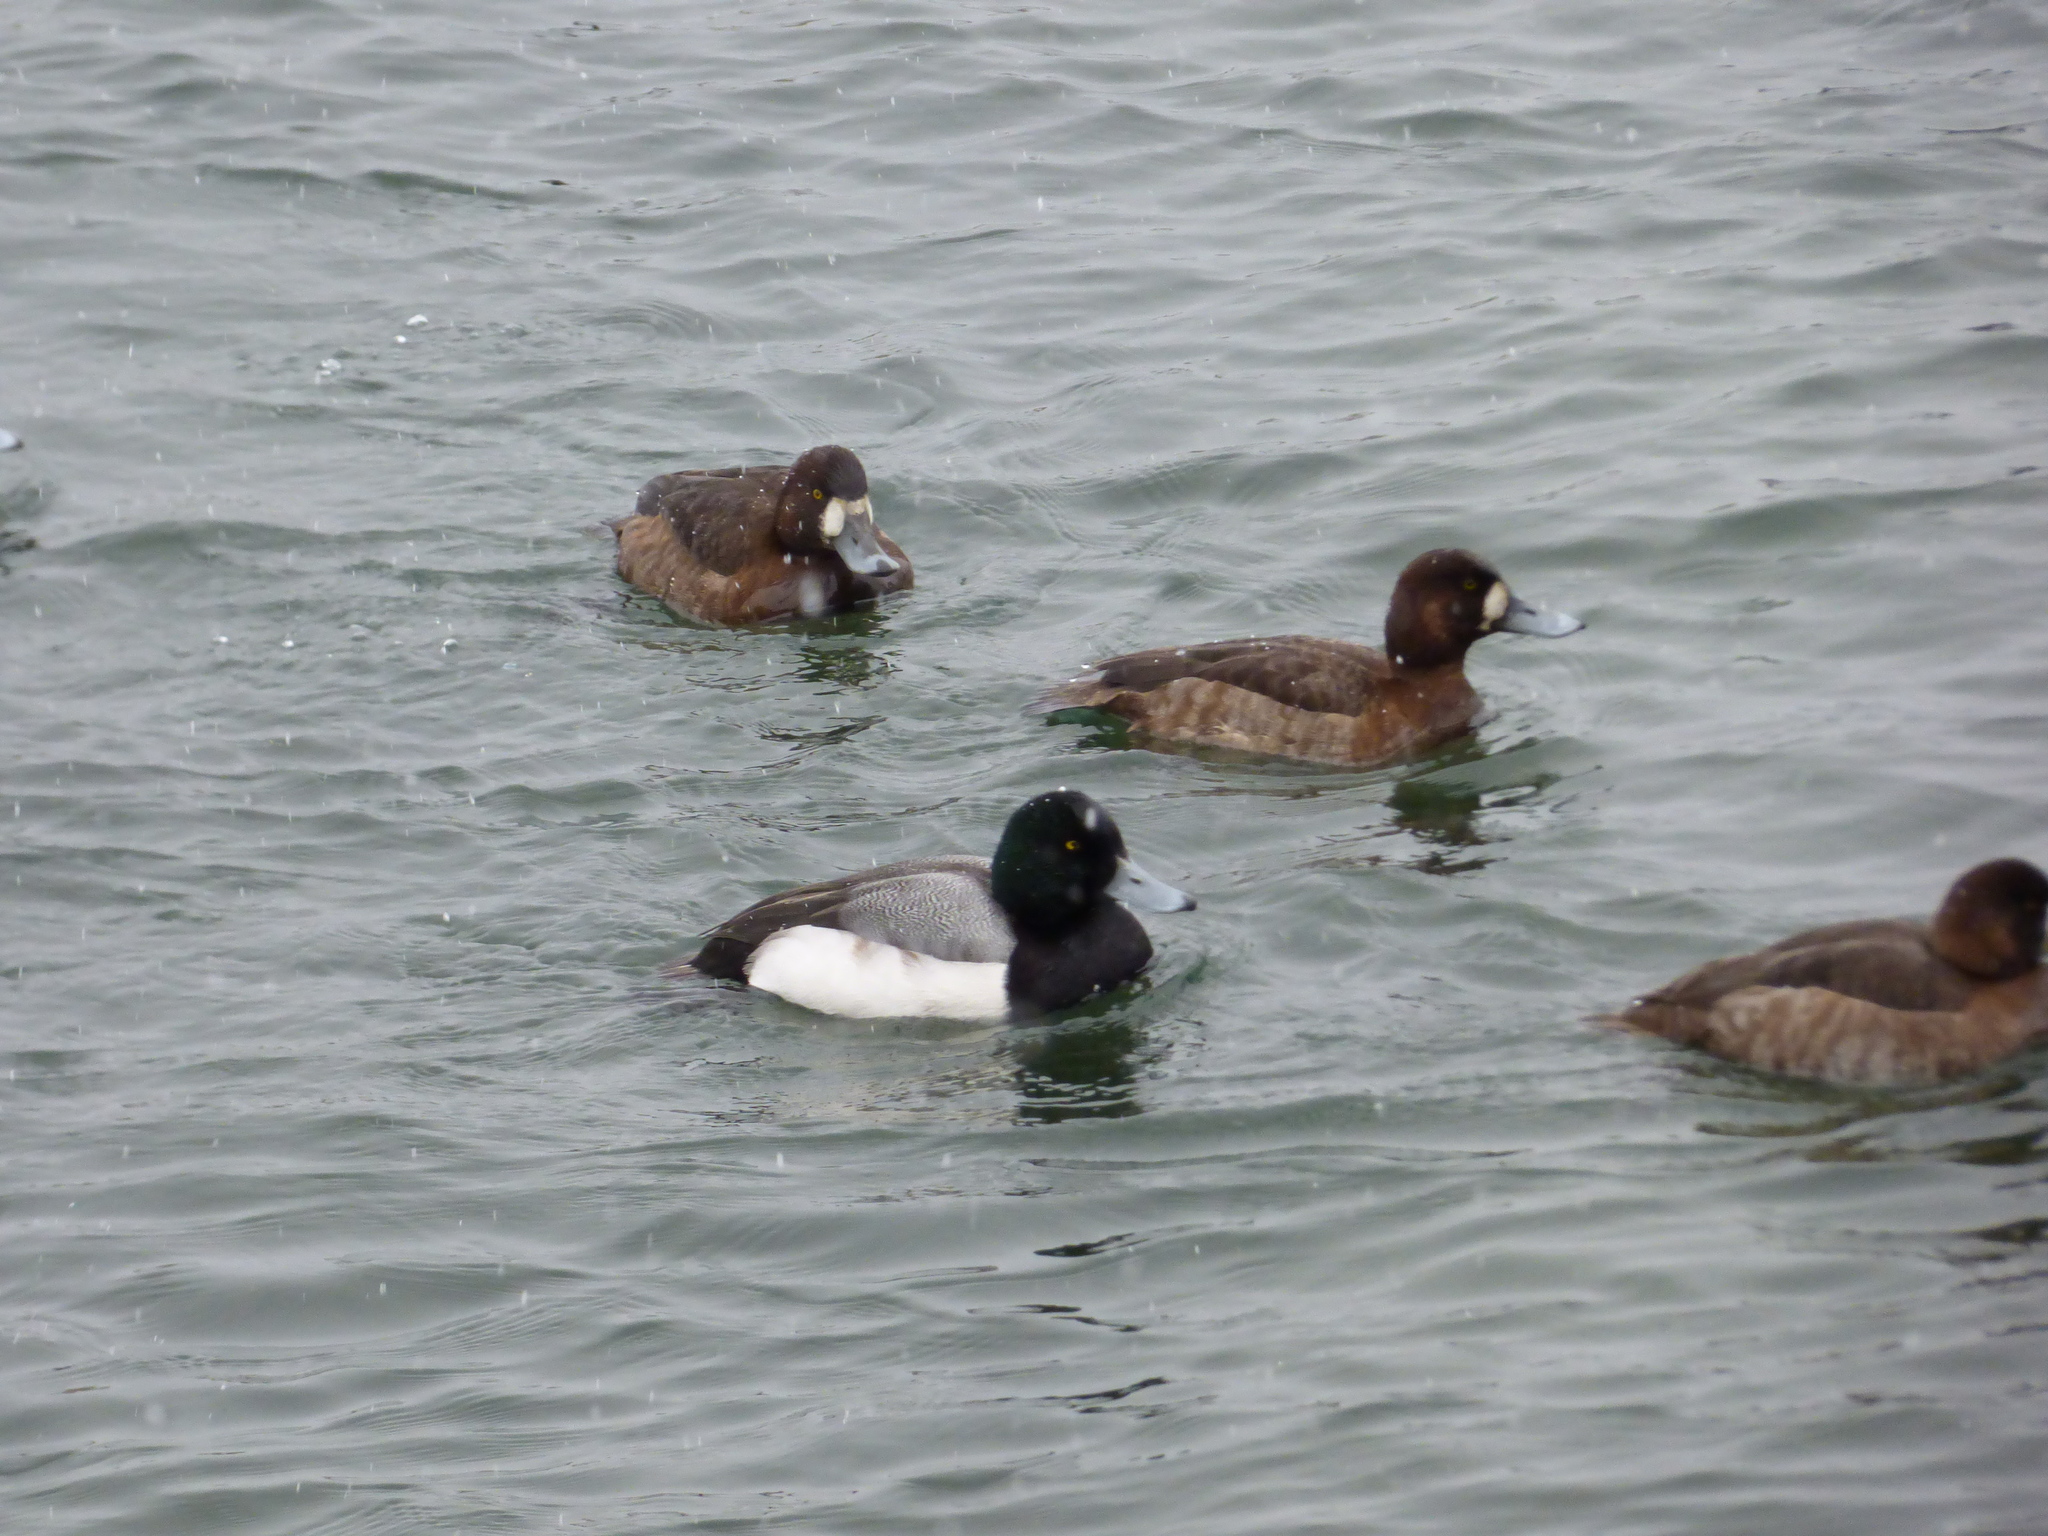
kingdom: Animalia
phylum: Chordata
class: Aves
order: Anseriformes
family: Anatidae
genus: Aythya
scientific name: Aythya marila
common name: Greater scaup
